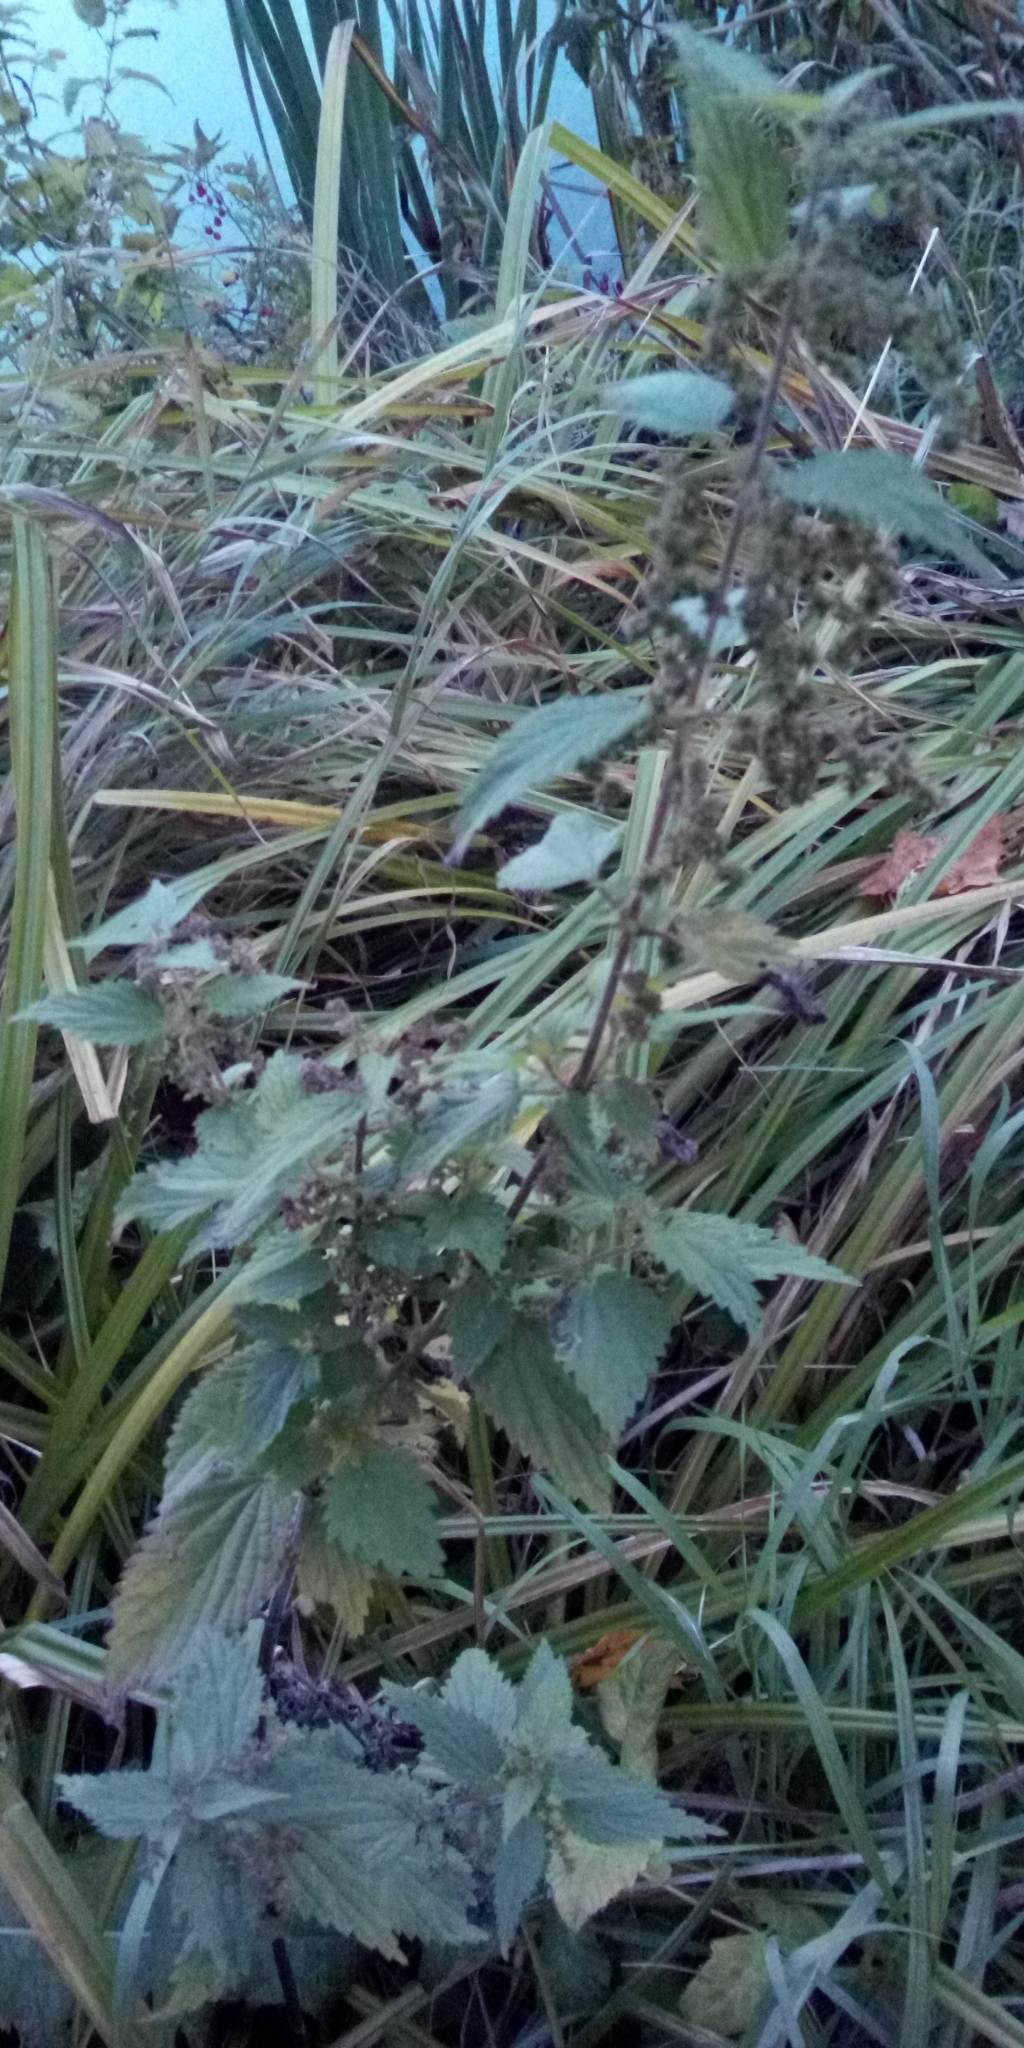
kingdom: Plantae
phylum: Tracheophyta
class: Magnoliopsida
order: Rosales
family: Urticaceae
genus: Urtica
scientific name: Urtica dioica
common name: Common nettle
